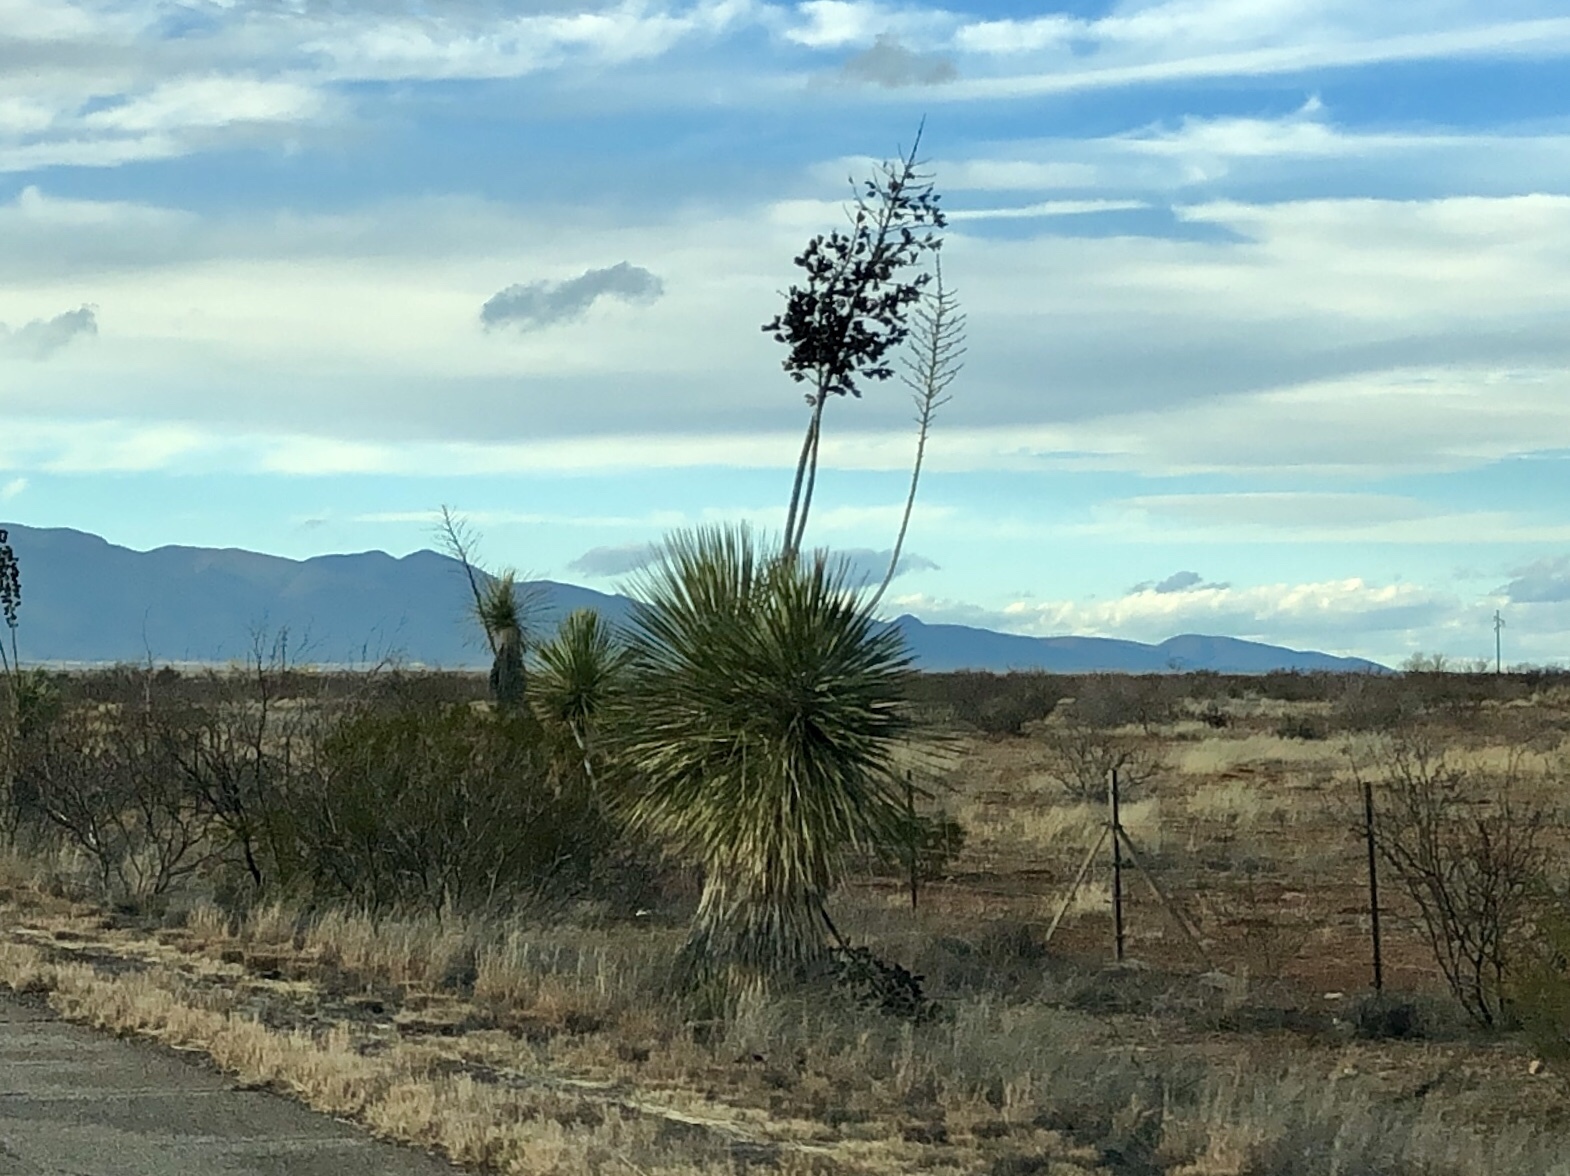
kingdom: Plantae
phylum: Tracheophyta
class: Liliopsida
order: Asparagales
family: Asparagaceae
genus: Yucca
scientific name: Yucca elata
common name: Palmella
